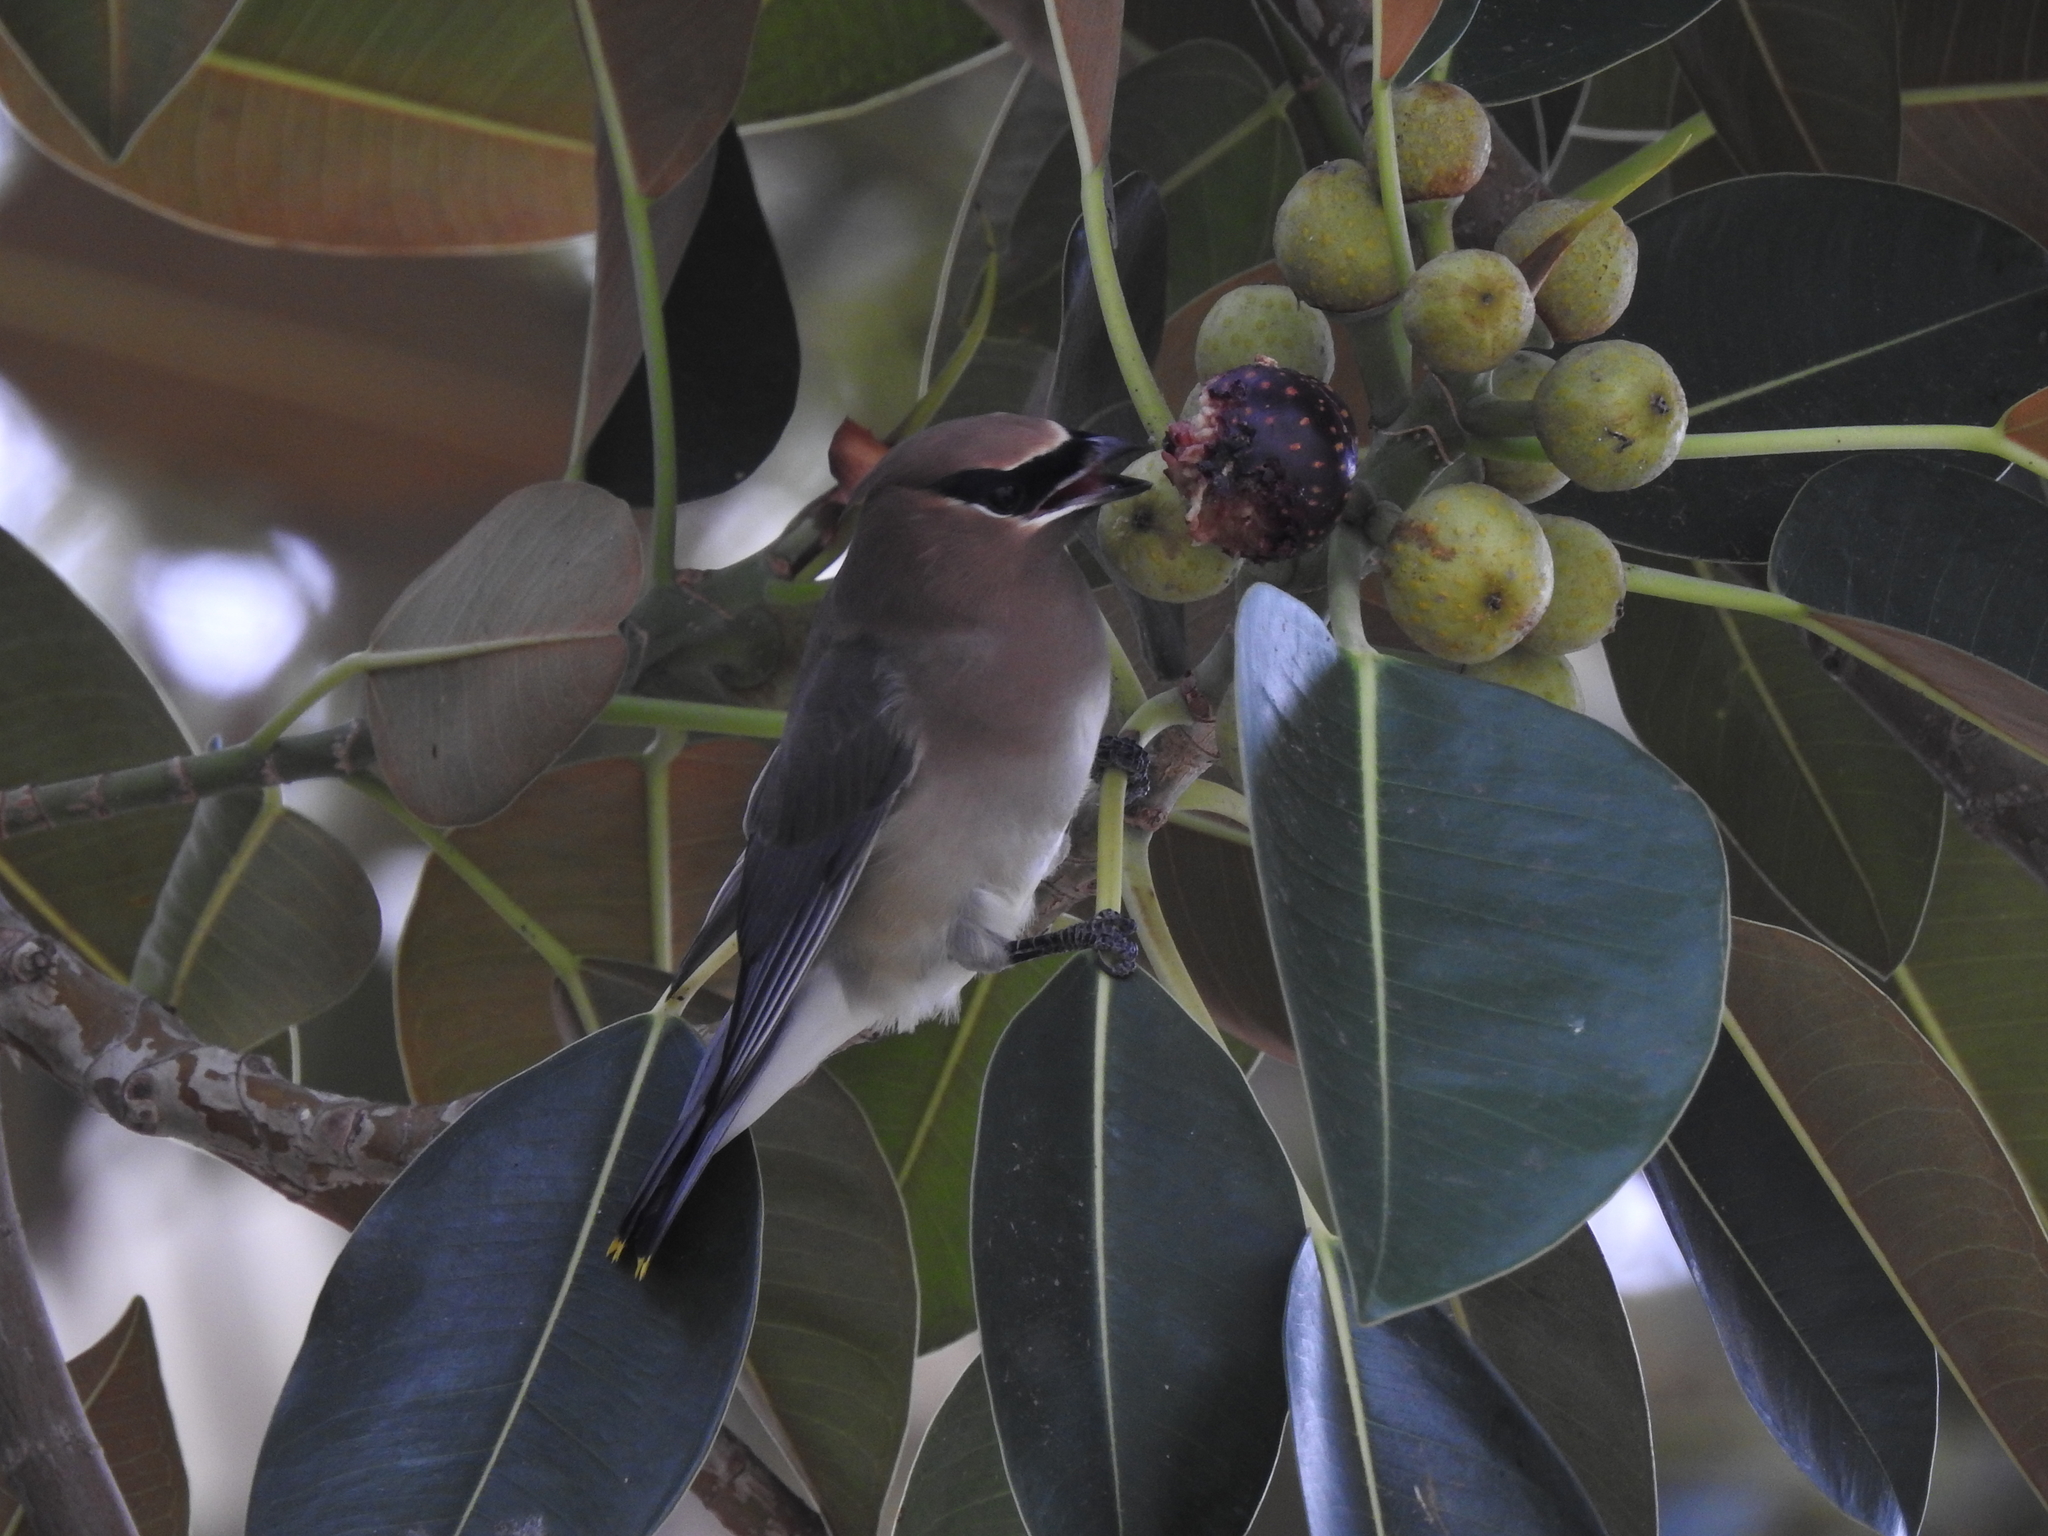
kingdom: Animalia
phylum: Chordata
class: Aves
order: Passeriformes
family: Bombycillidae
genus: Bombycilla
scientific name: Bombycilla cedrorum
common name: Cedar waxwing
